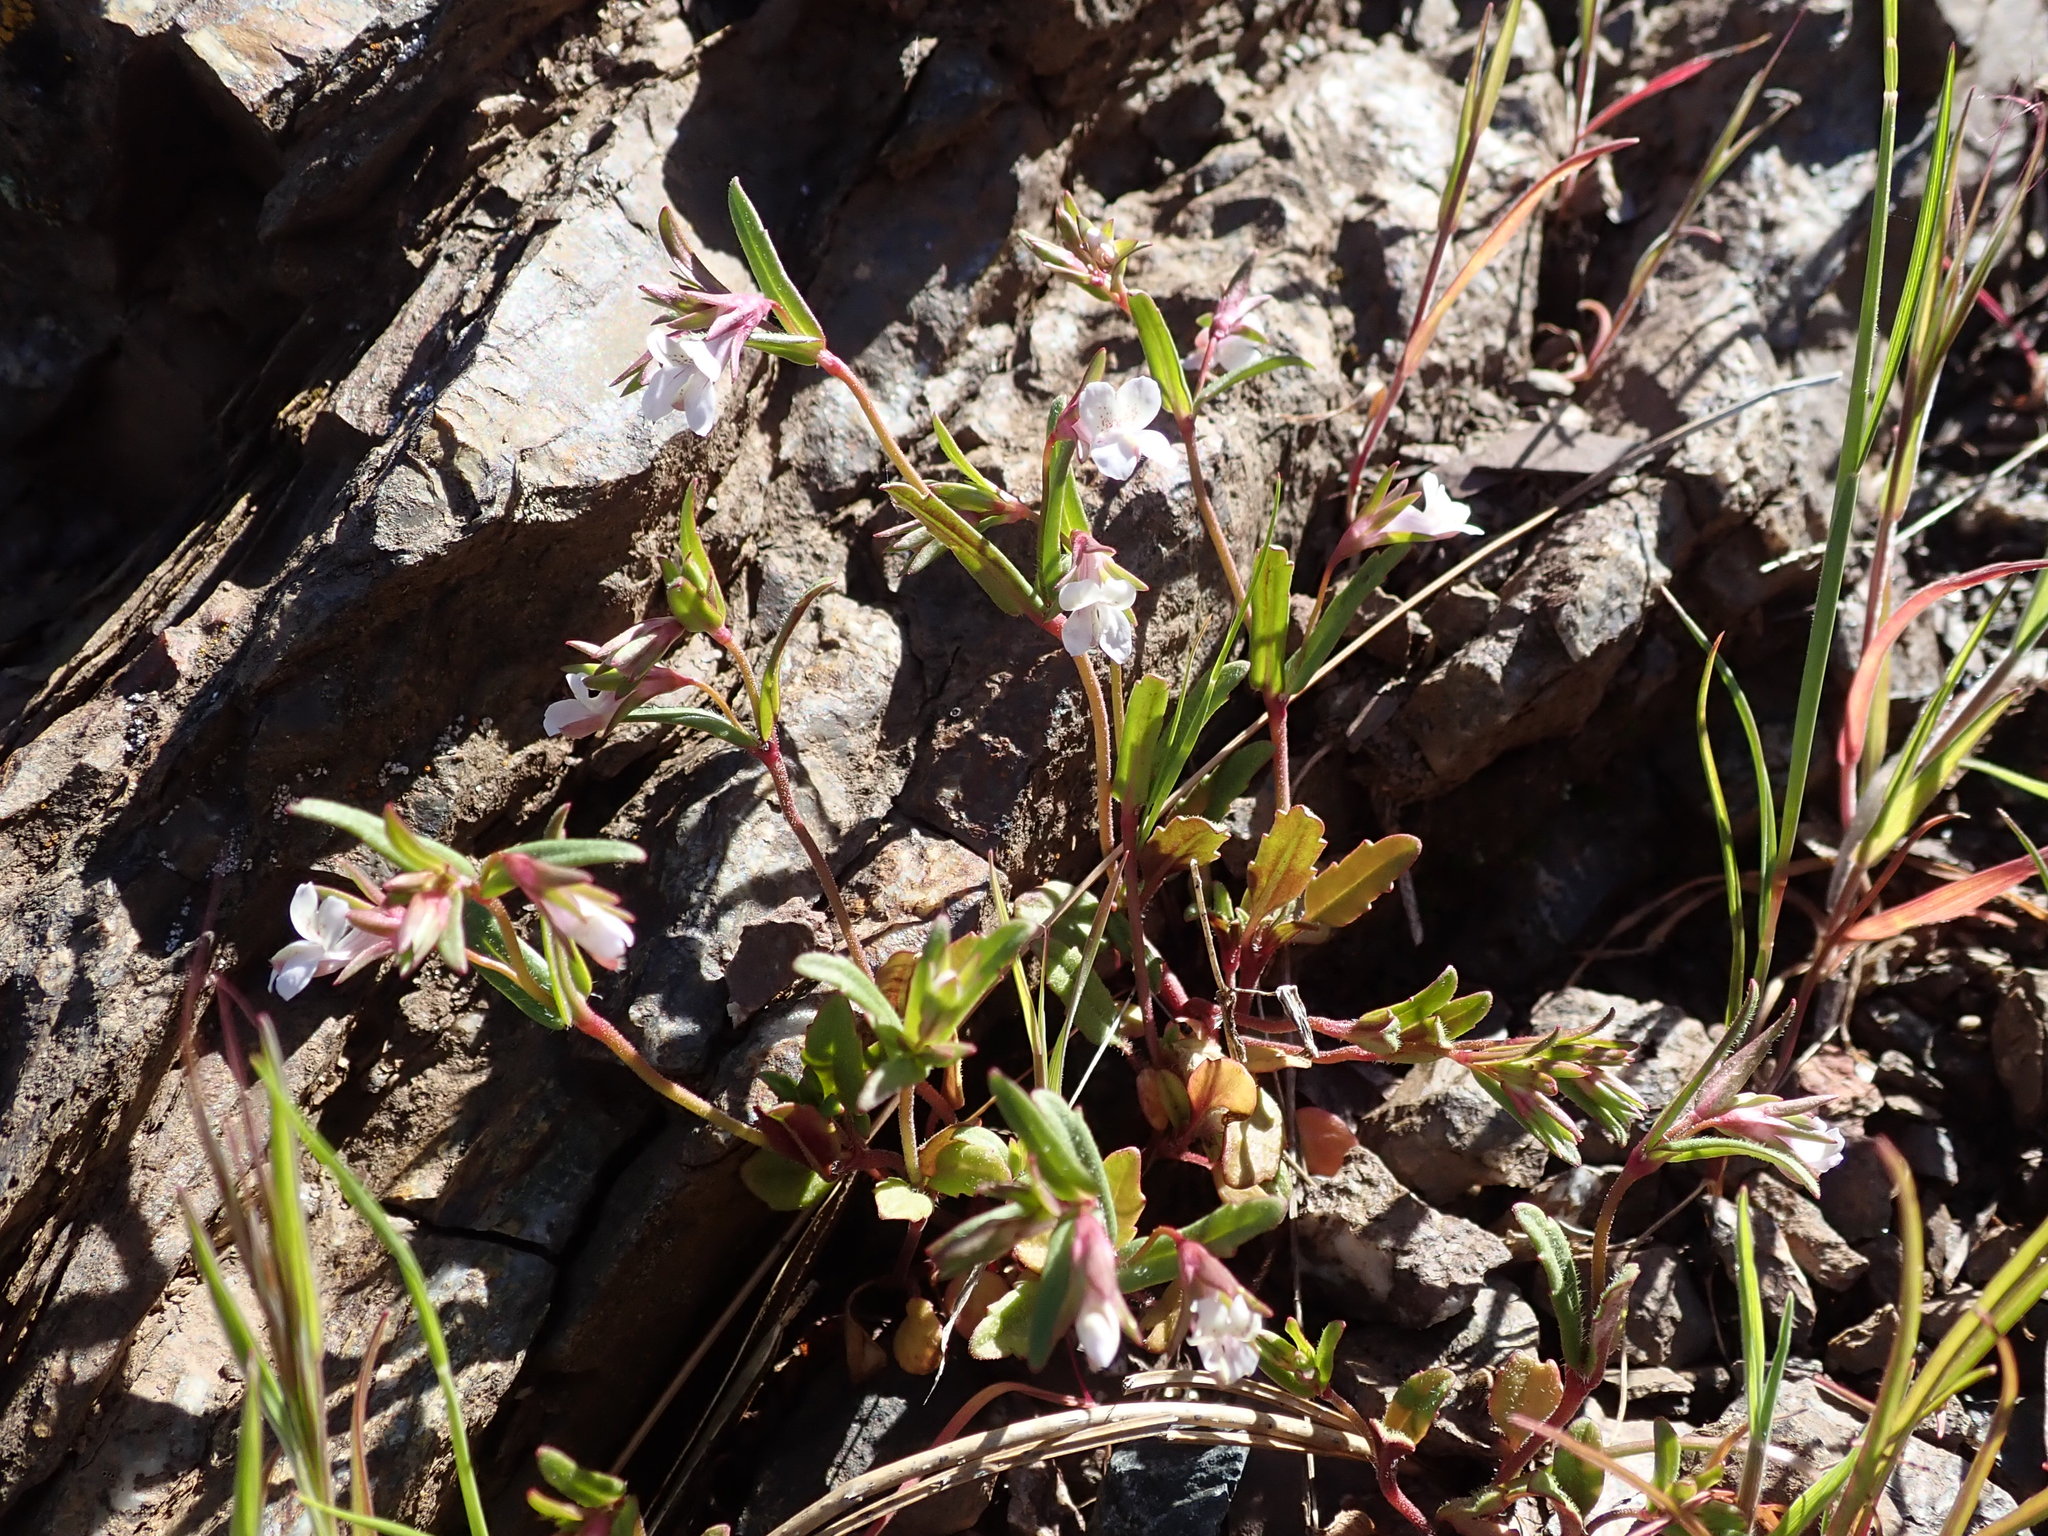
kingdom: Plantae
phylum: Tracheophyta
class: Magnoliopsida
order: Lamiales
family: Plantaginaceae
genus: Collinsia
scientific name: Collinsia sparsiflora
